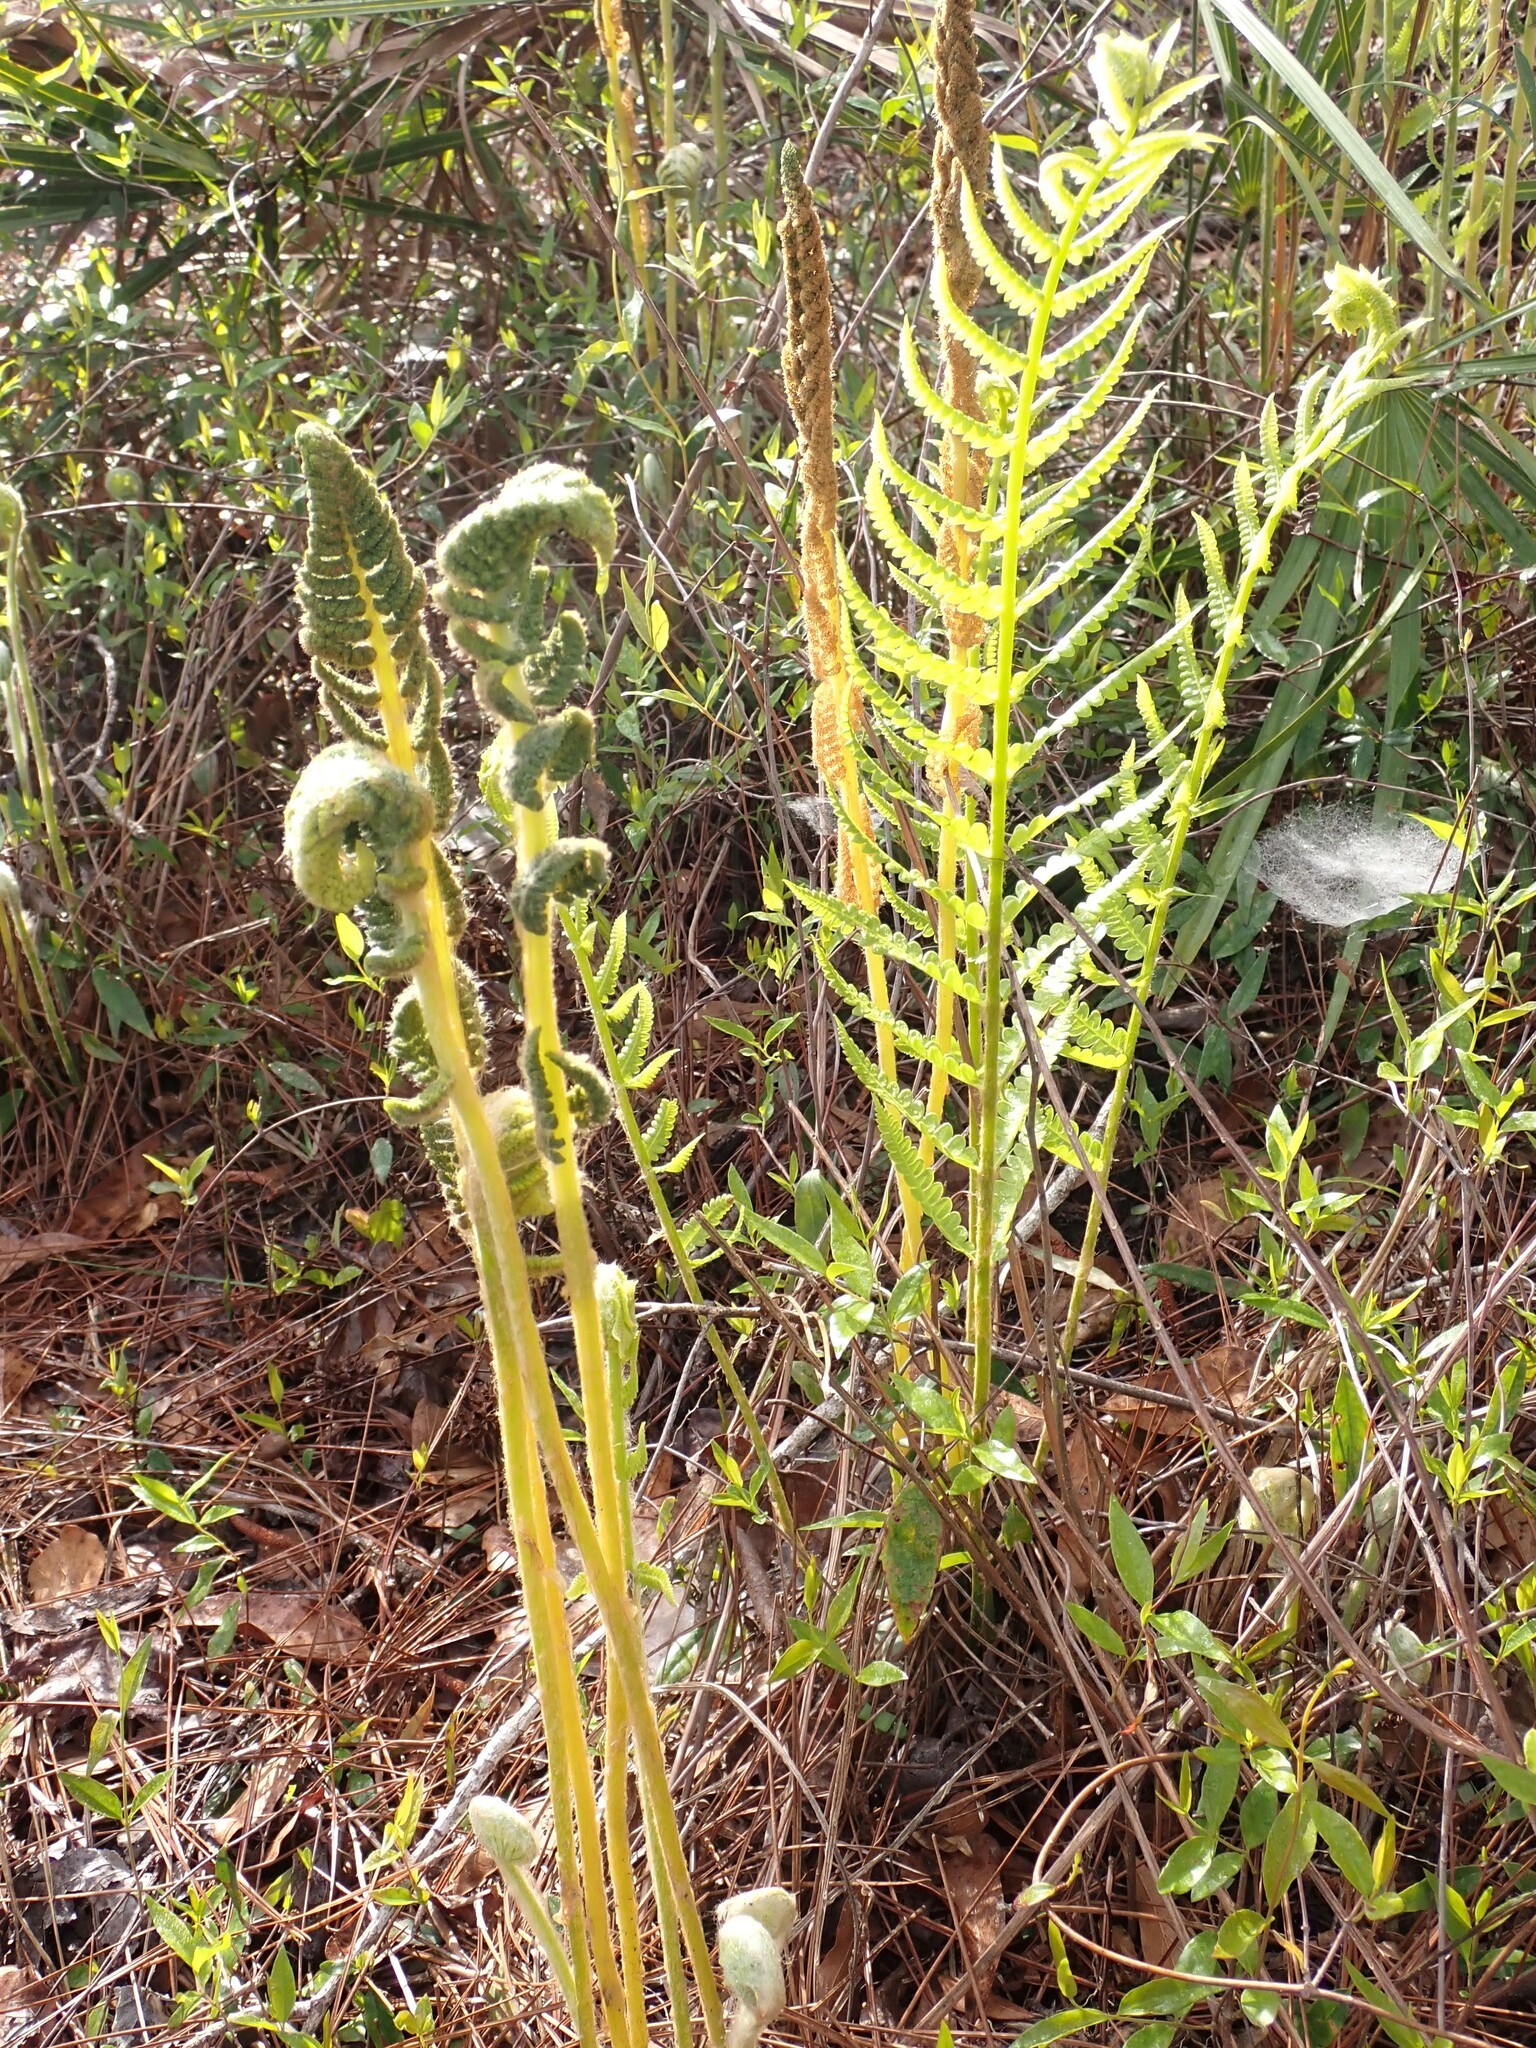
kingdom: Plantae
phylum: Tracheophyta
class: Polypodiopsida
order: Osmundales
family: Osmundaceae
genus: Osmundastrum
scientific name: Osmundastrum cinnamomeum
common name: Cinnamon fern
